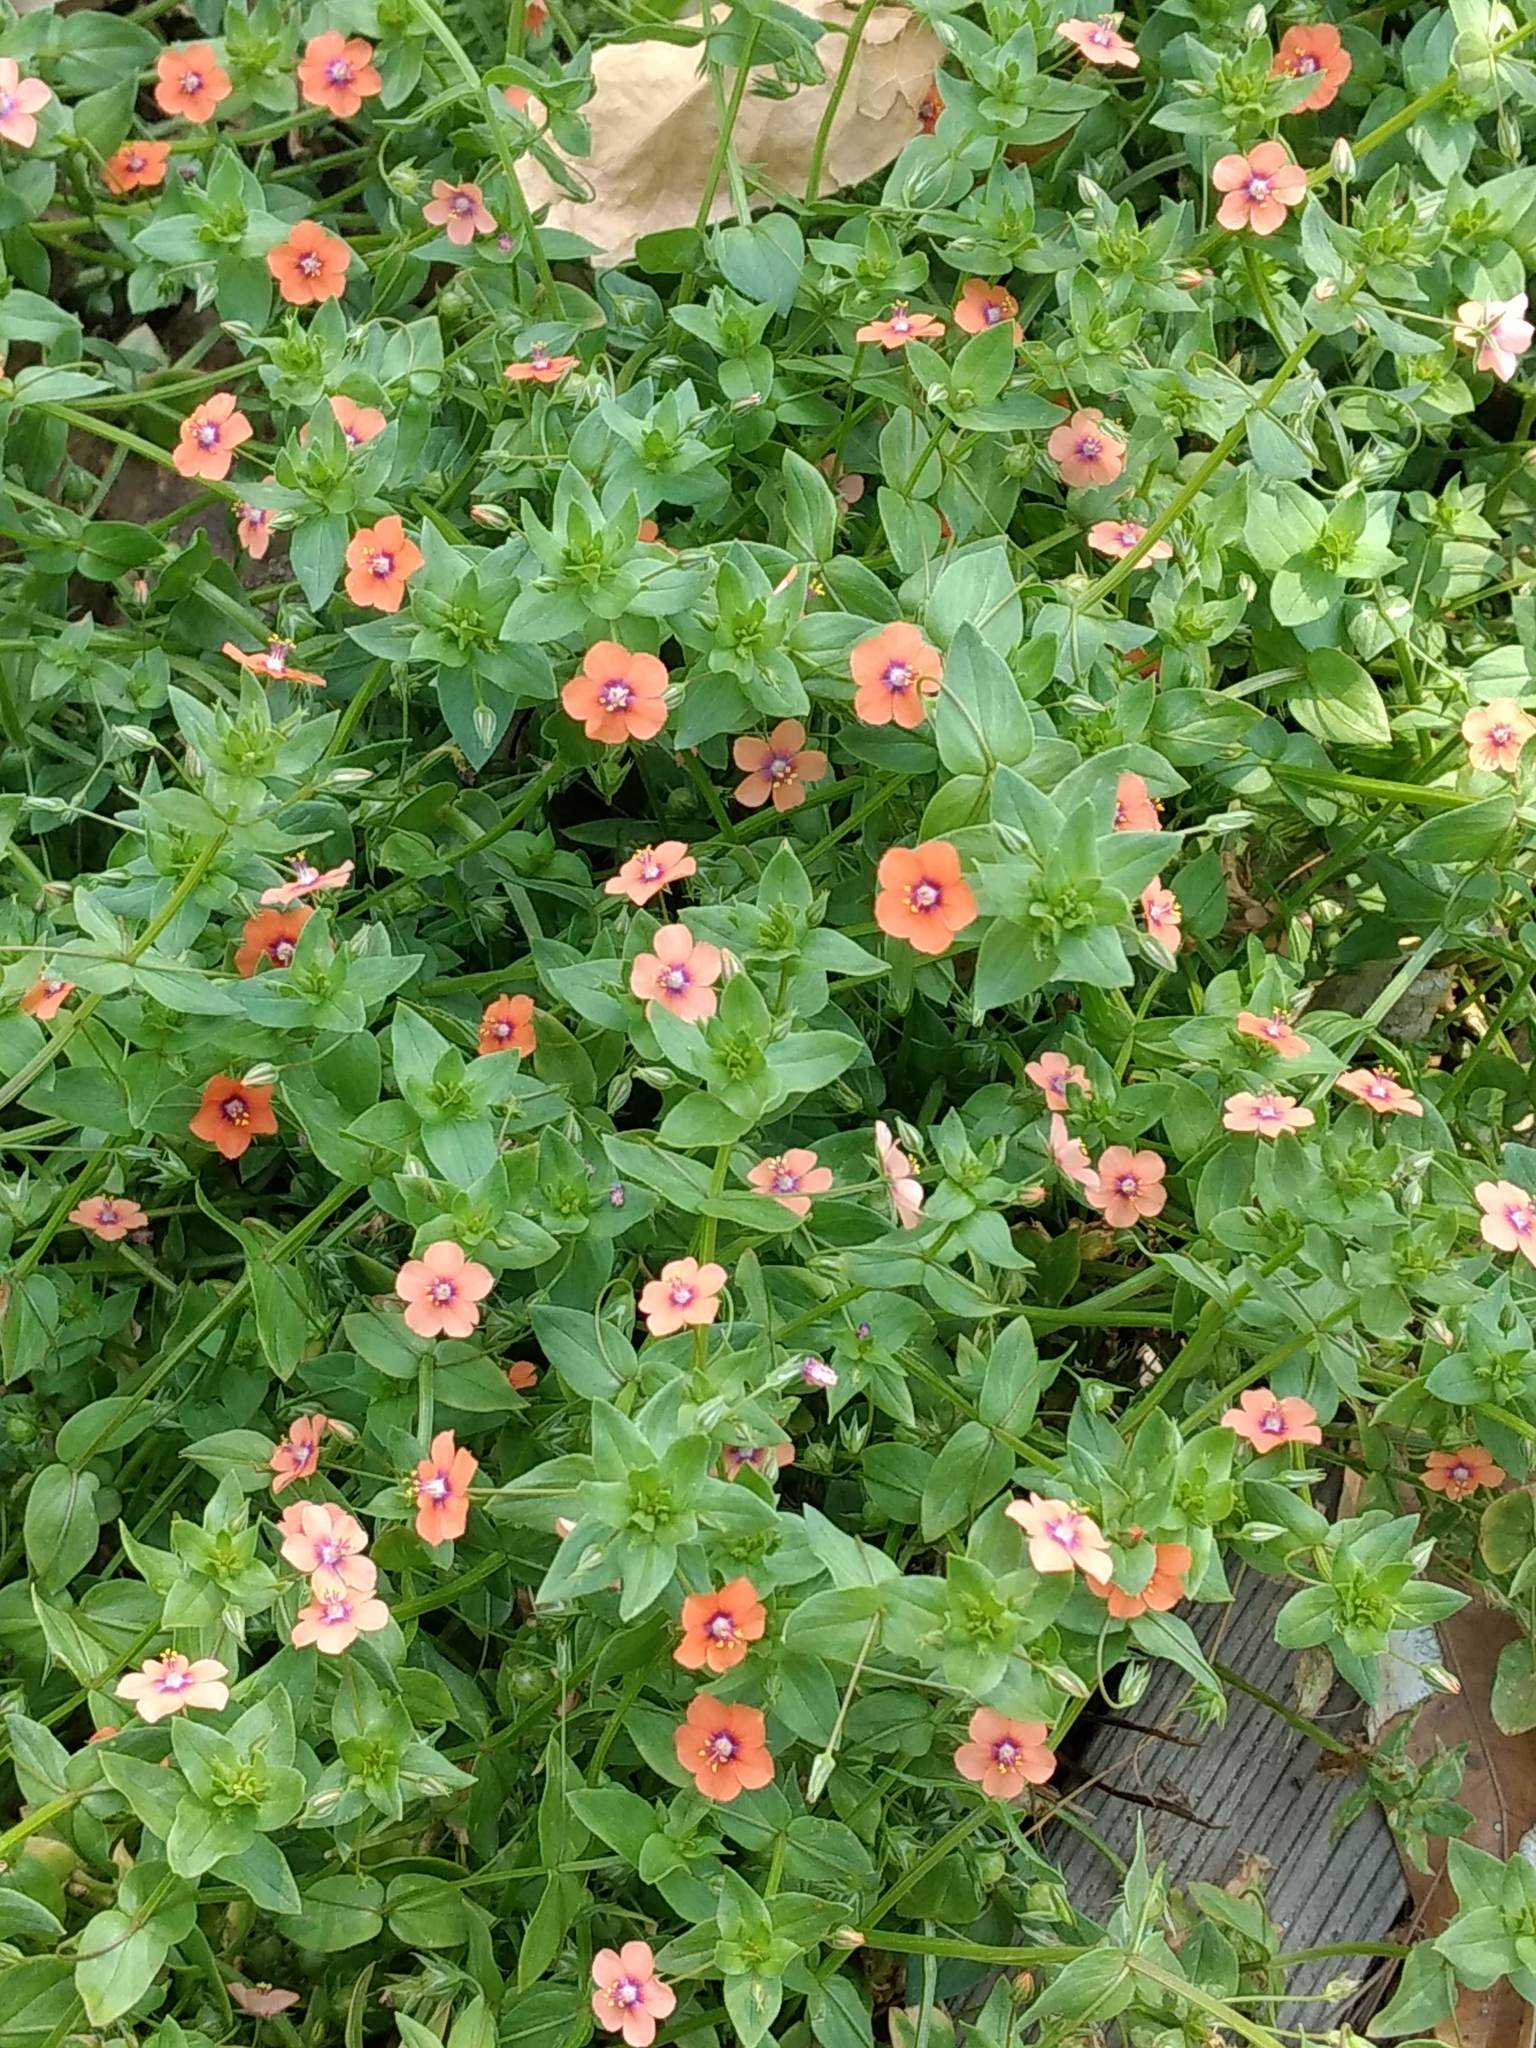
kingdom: Plantae
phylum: Tracheophyta
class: Magnoliopsida
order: Ericales
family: Primulaceae
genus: Lysimachia
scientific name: Lysimachia arvensis
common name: Scarlet pimpernel
